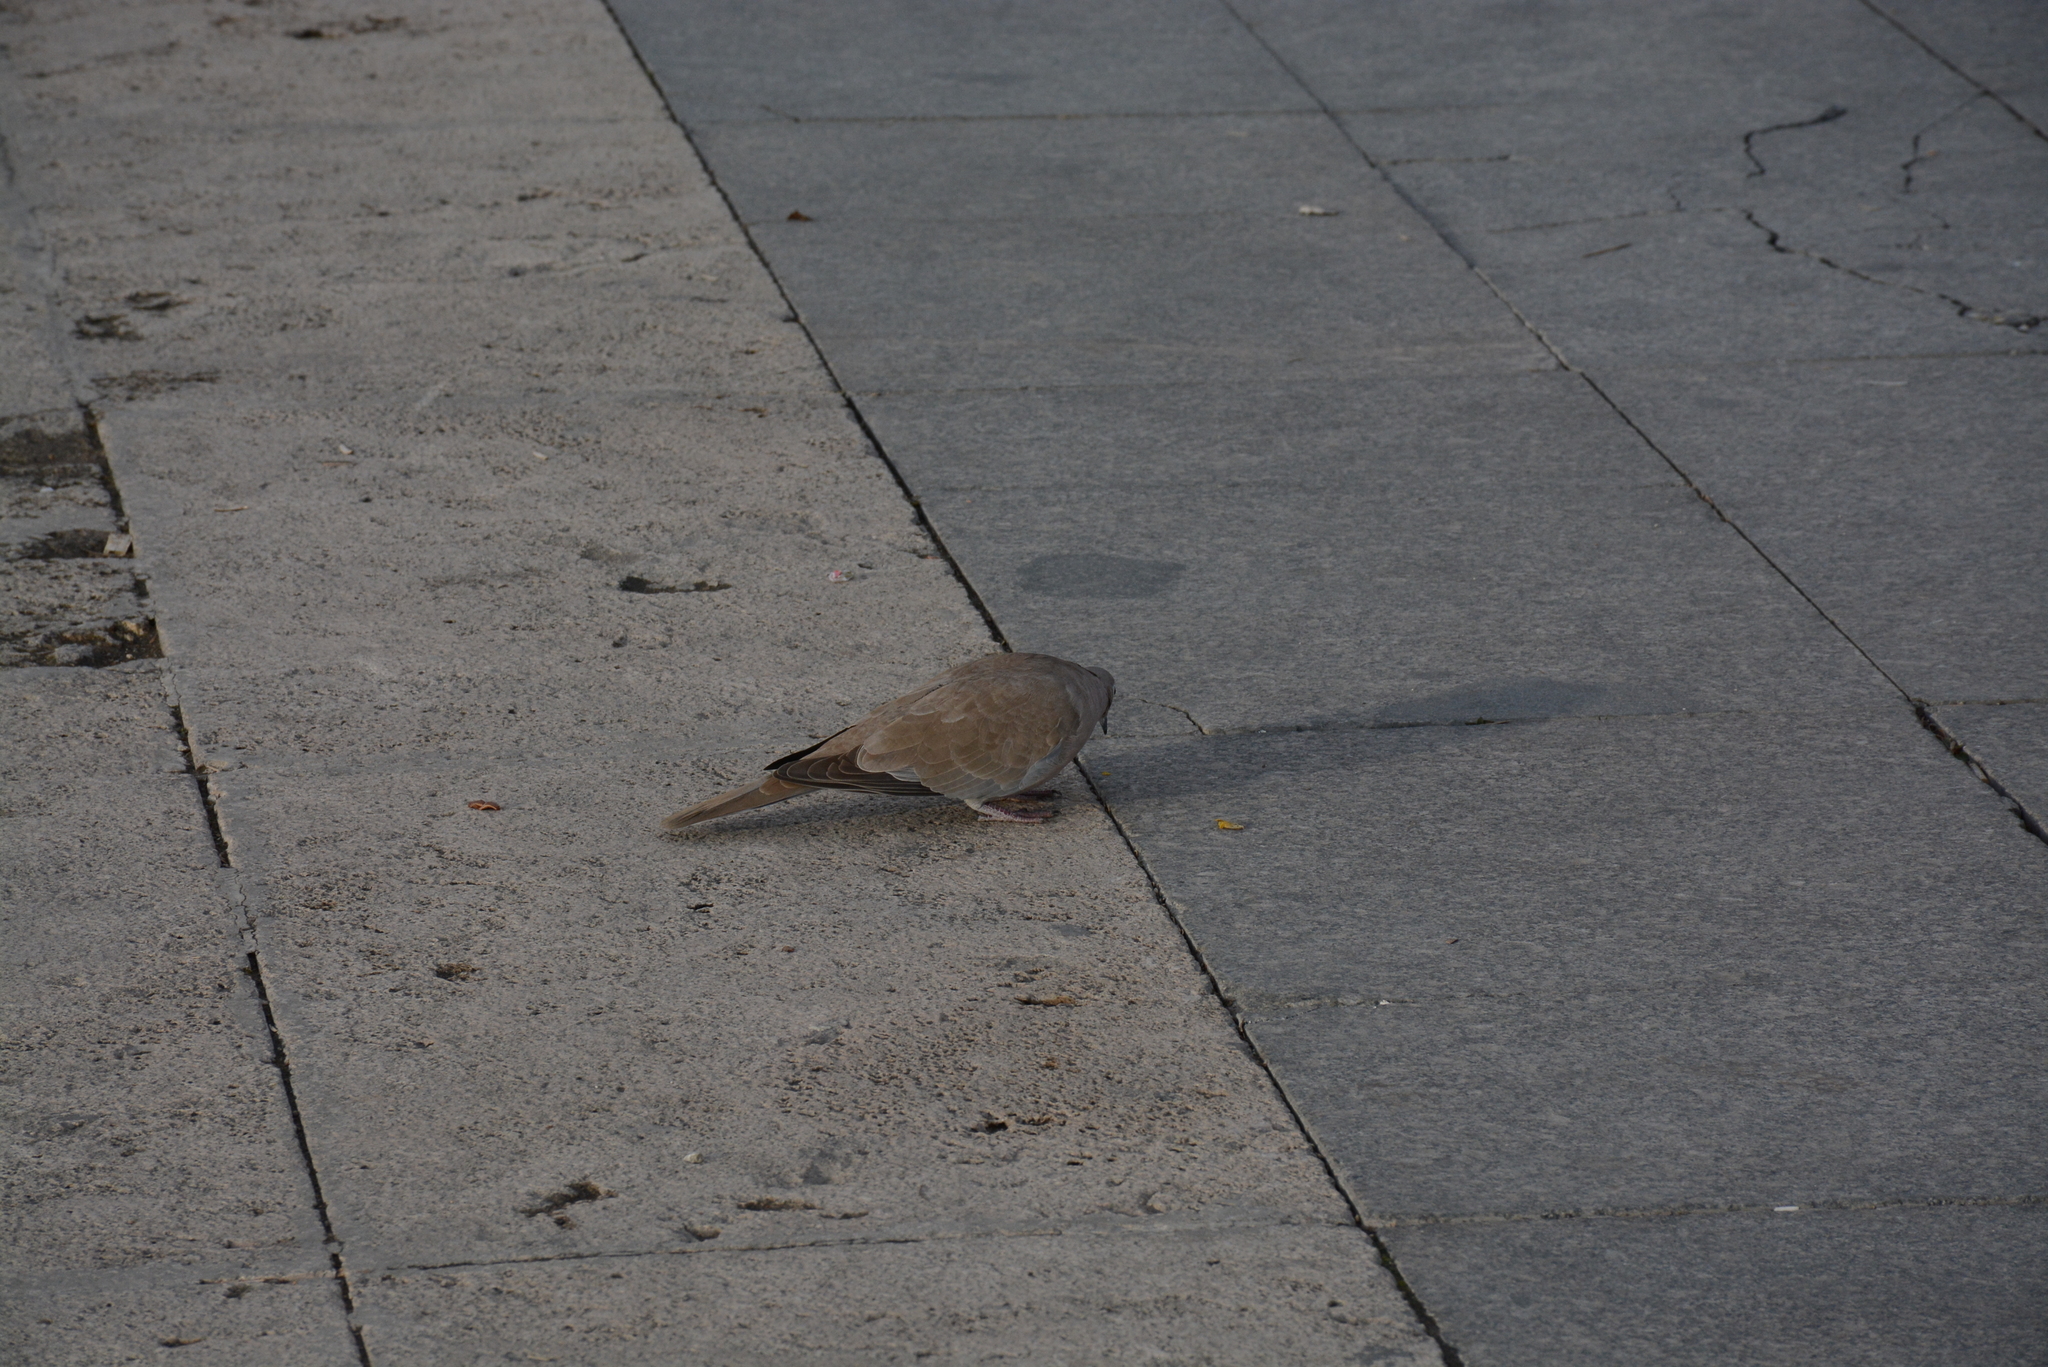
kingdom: Animalia
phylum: Chordata
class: Aves
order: Columbiformes
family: Columbidae
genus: Streptopelia
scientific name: Streptopelia decaocto
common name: Eurasian collared dove
